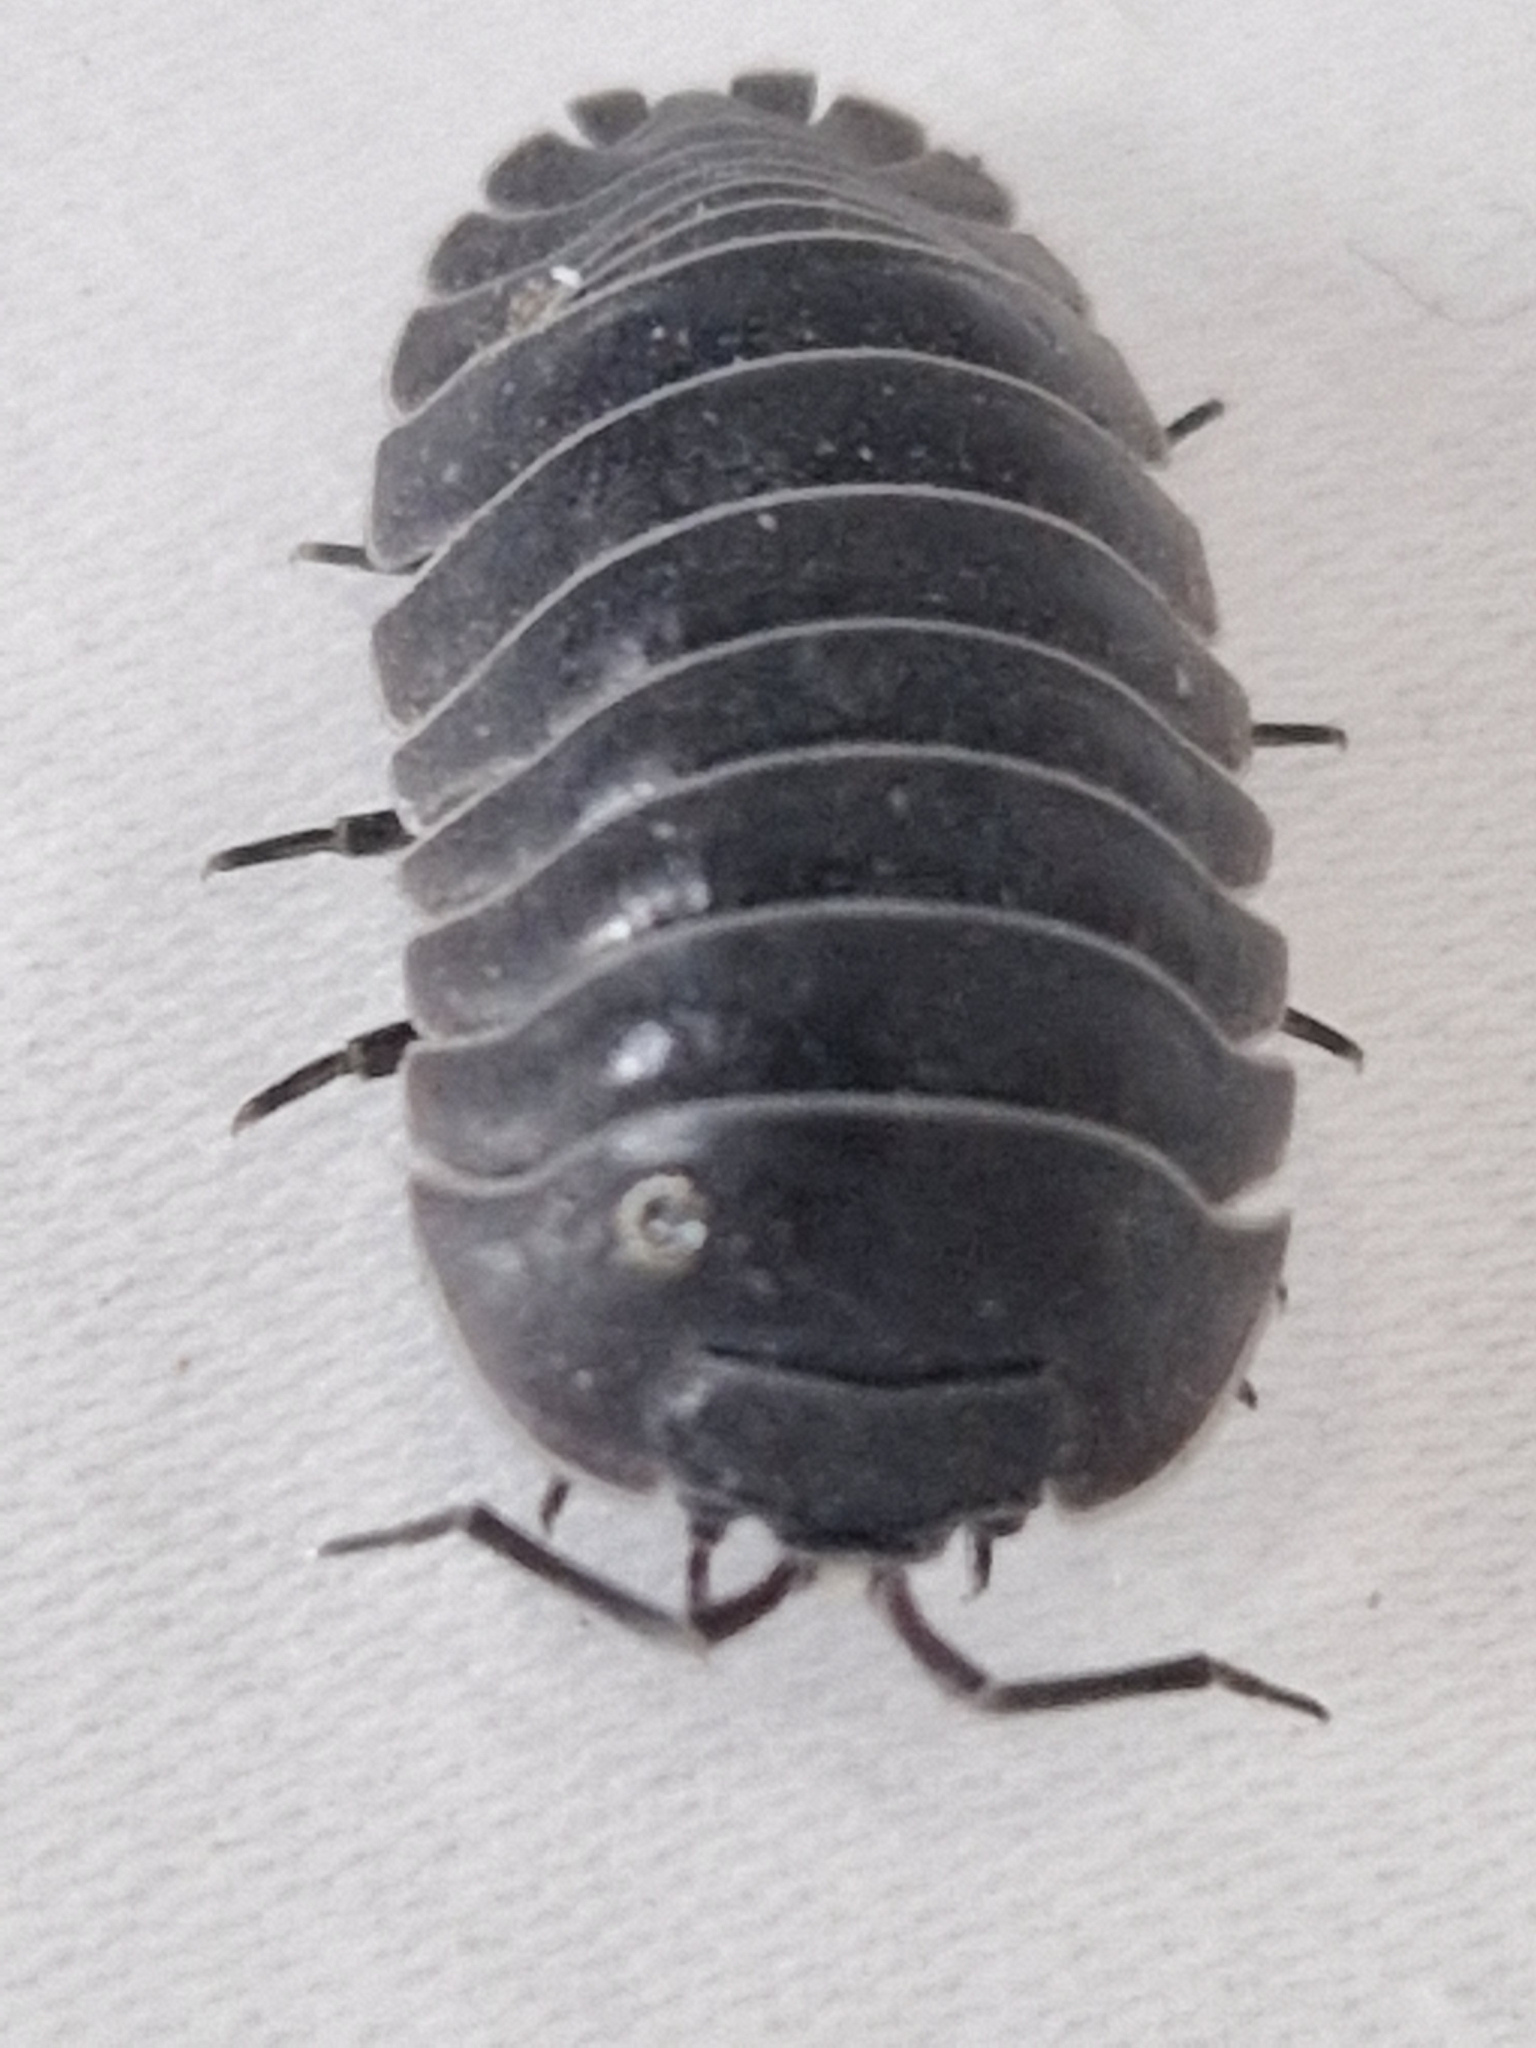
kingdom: Animalia
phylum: Arthropoda
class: Malacostraca
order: Isopoda
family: Armadillidiidae
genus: Armadillidium
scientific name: Armadillidium depressum
